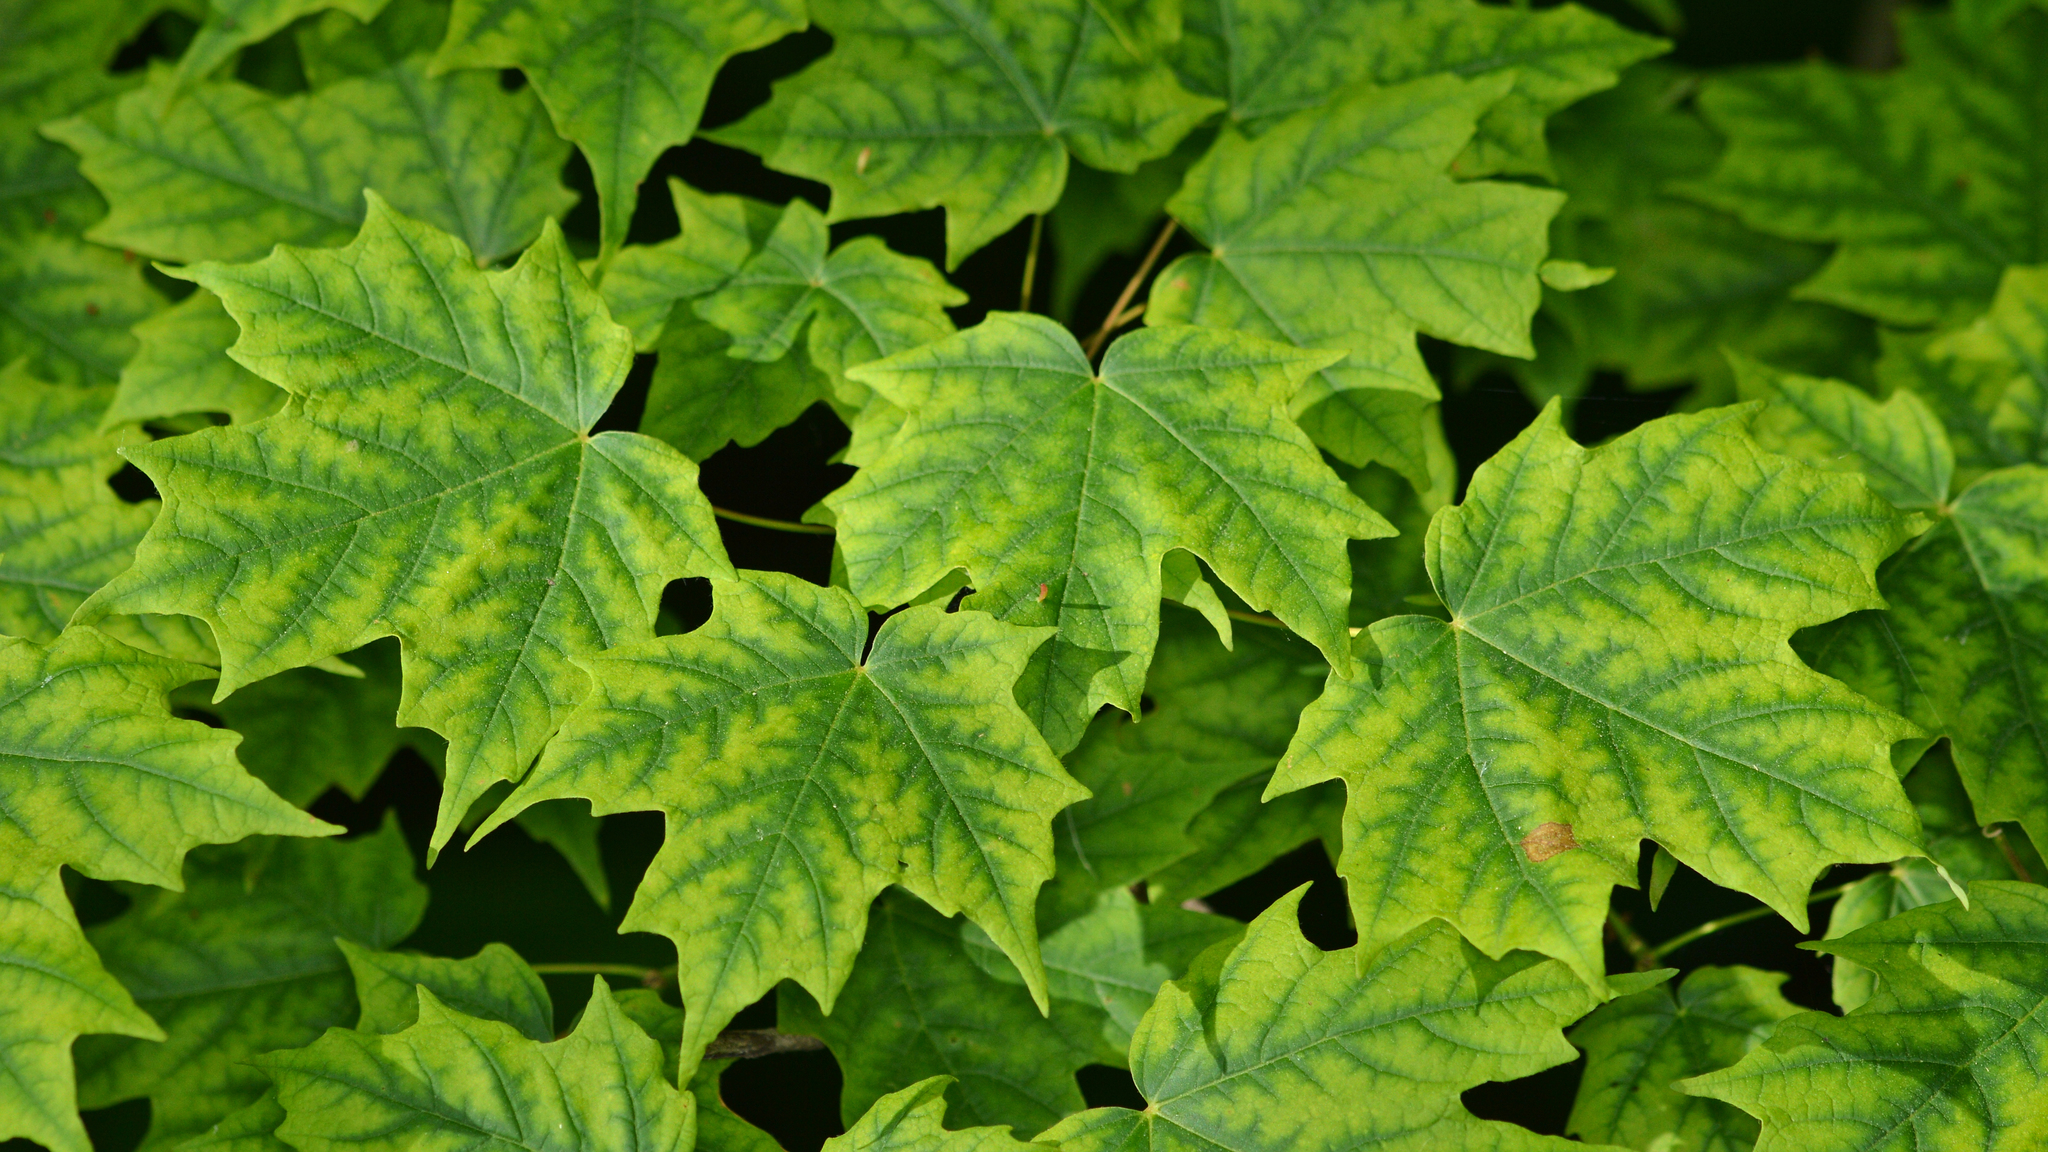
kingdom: Plantae
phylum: Tracheophyta
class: Magnoliopsida
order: Sapindales
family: Sapindaceae
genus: Acer
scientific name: Acer saccharum
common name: Sugar maple
